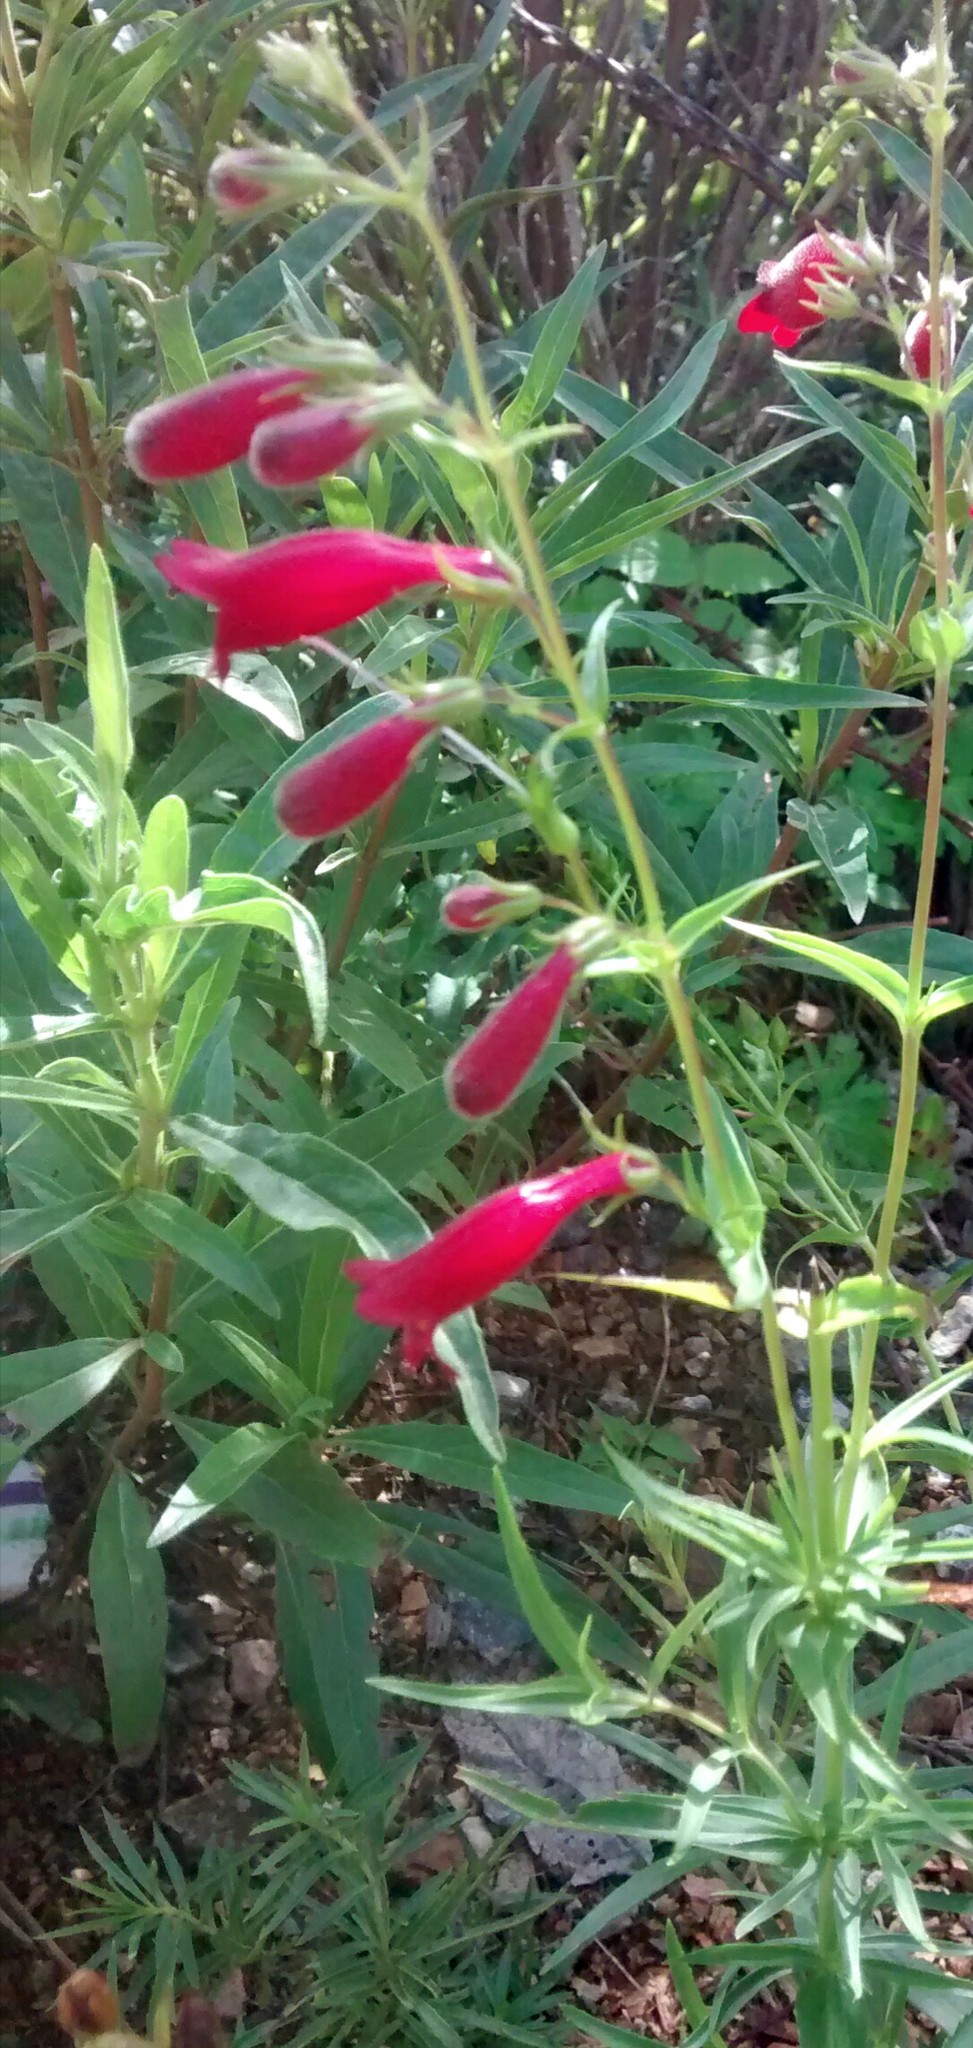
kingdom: Plantae
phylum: Tracheophyta
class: Magnoliopsida
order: Lamiales
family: Plantaginaceae
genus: Penstemon
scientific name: Penstemon roseus
